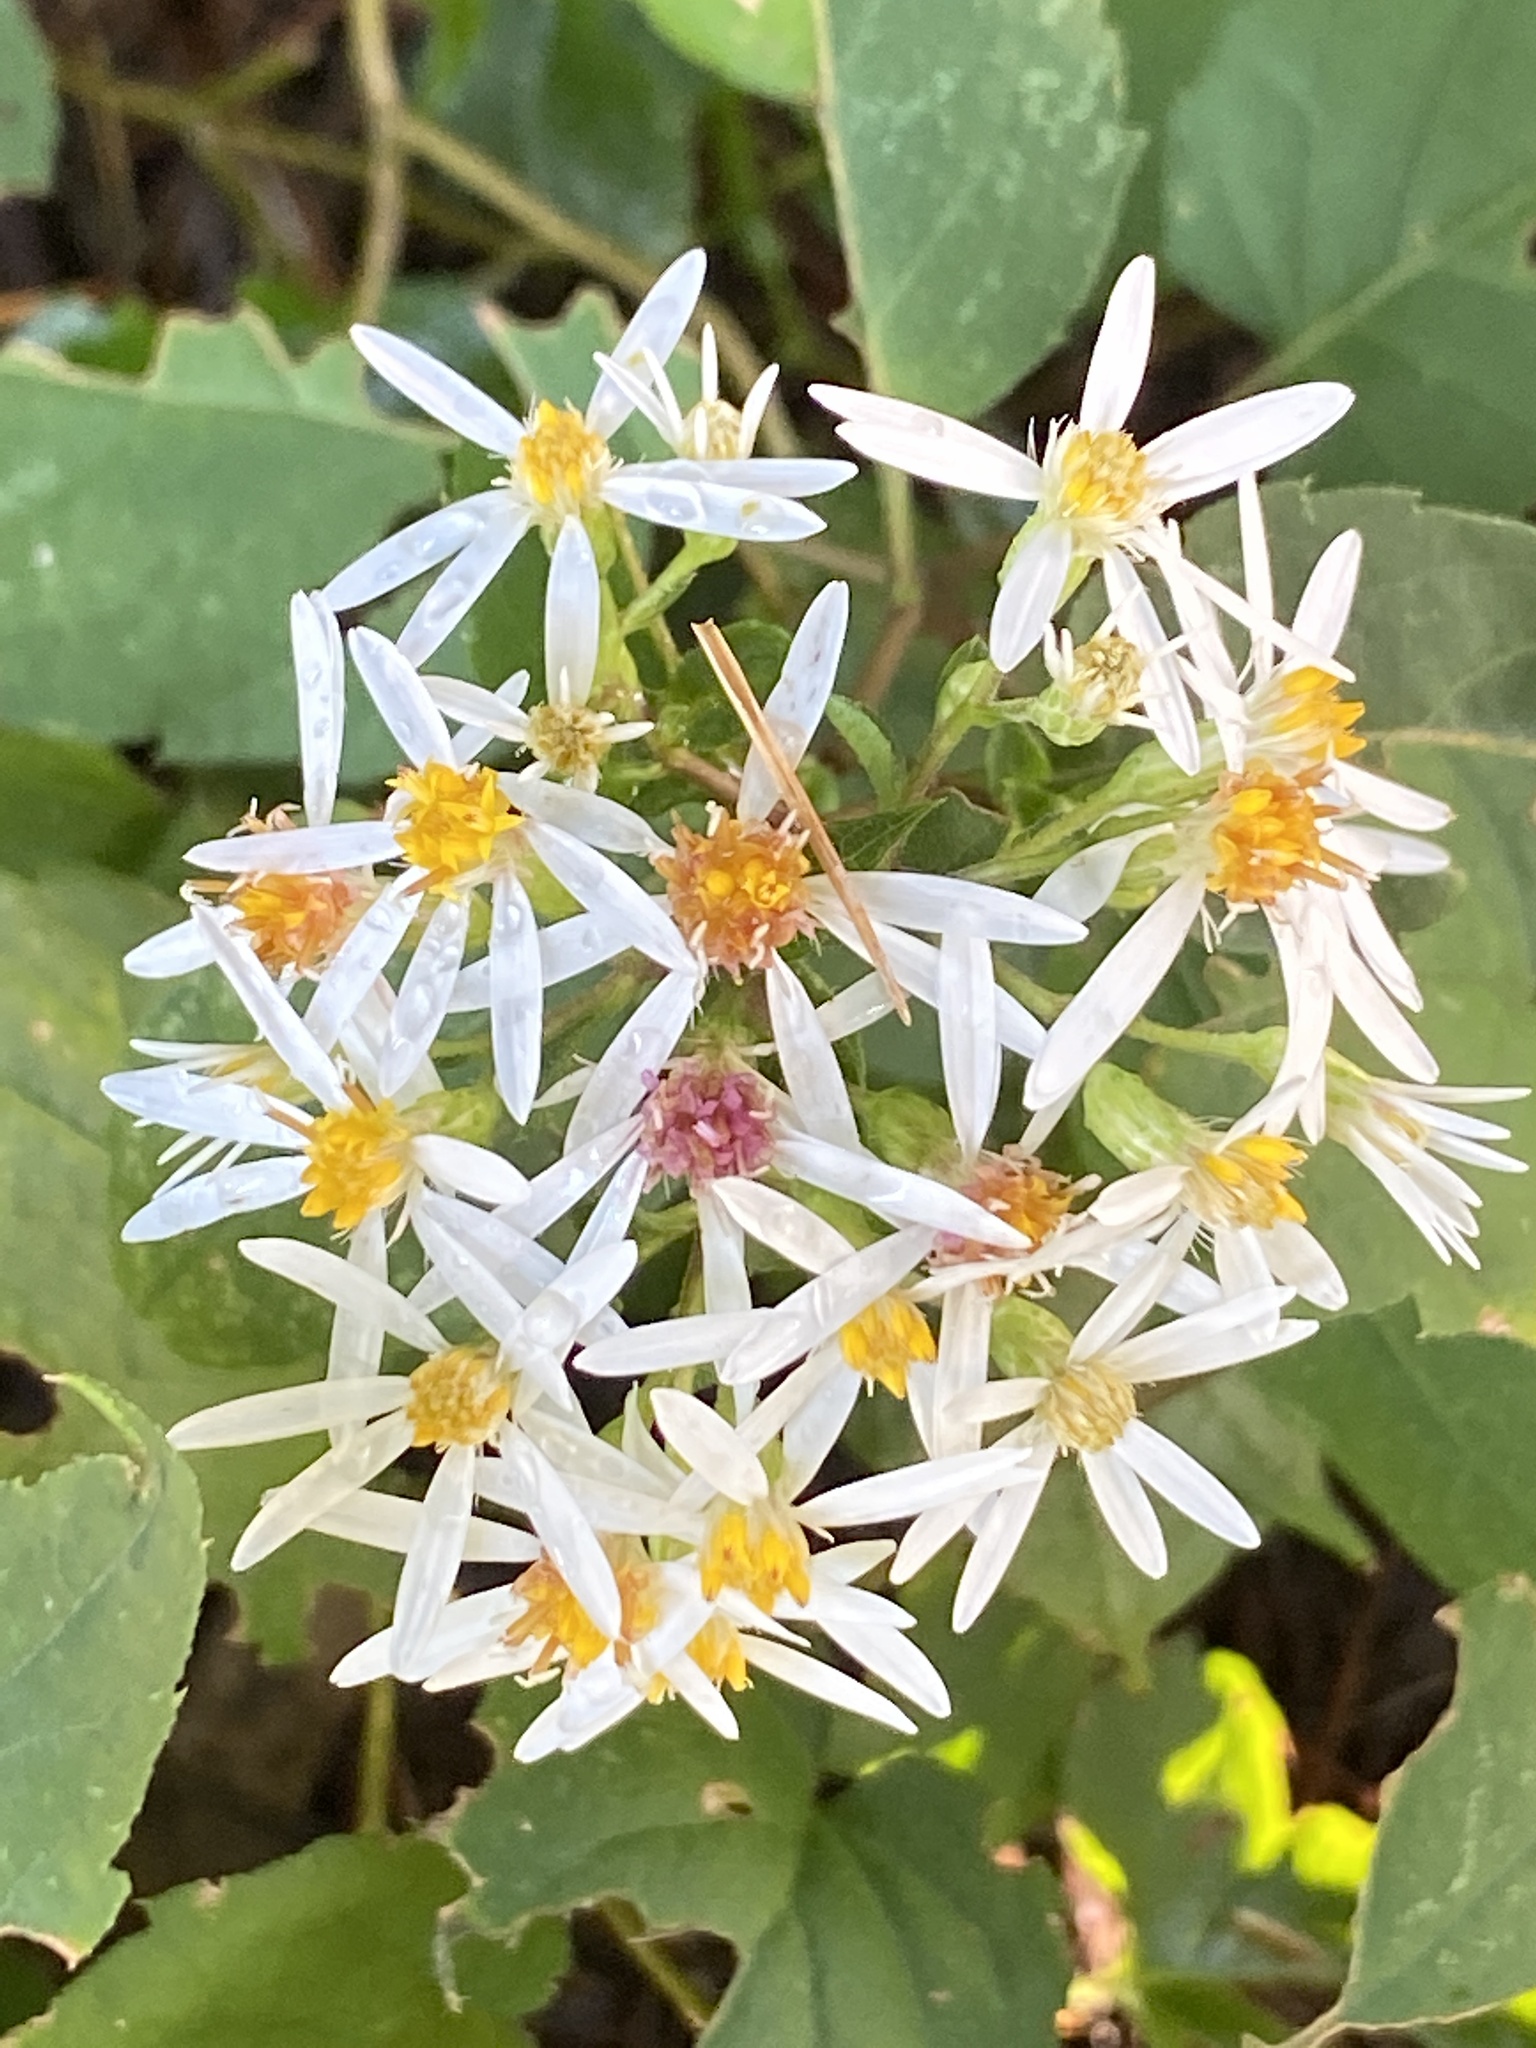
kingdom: Plantae
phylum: Tracheophyta
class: Magnoliopsida
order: Asterales
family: Asteraceae
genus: Eurybia
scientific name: Eurybia divaricata
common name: White wood aster
